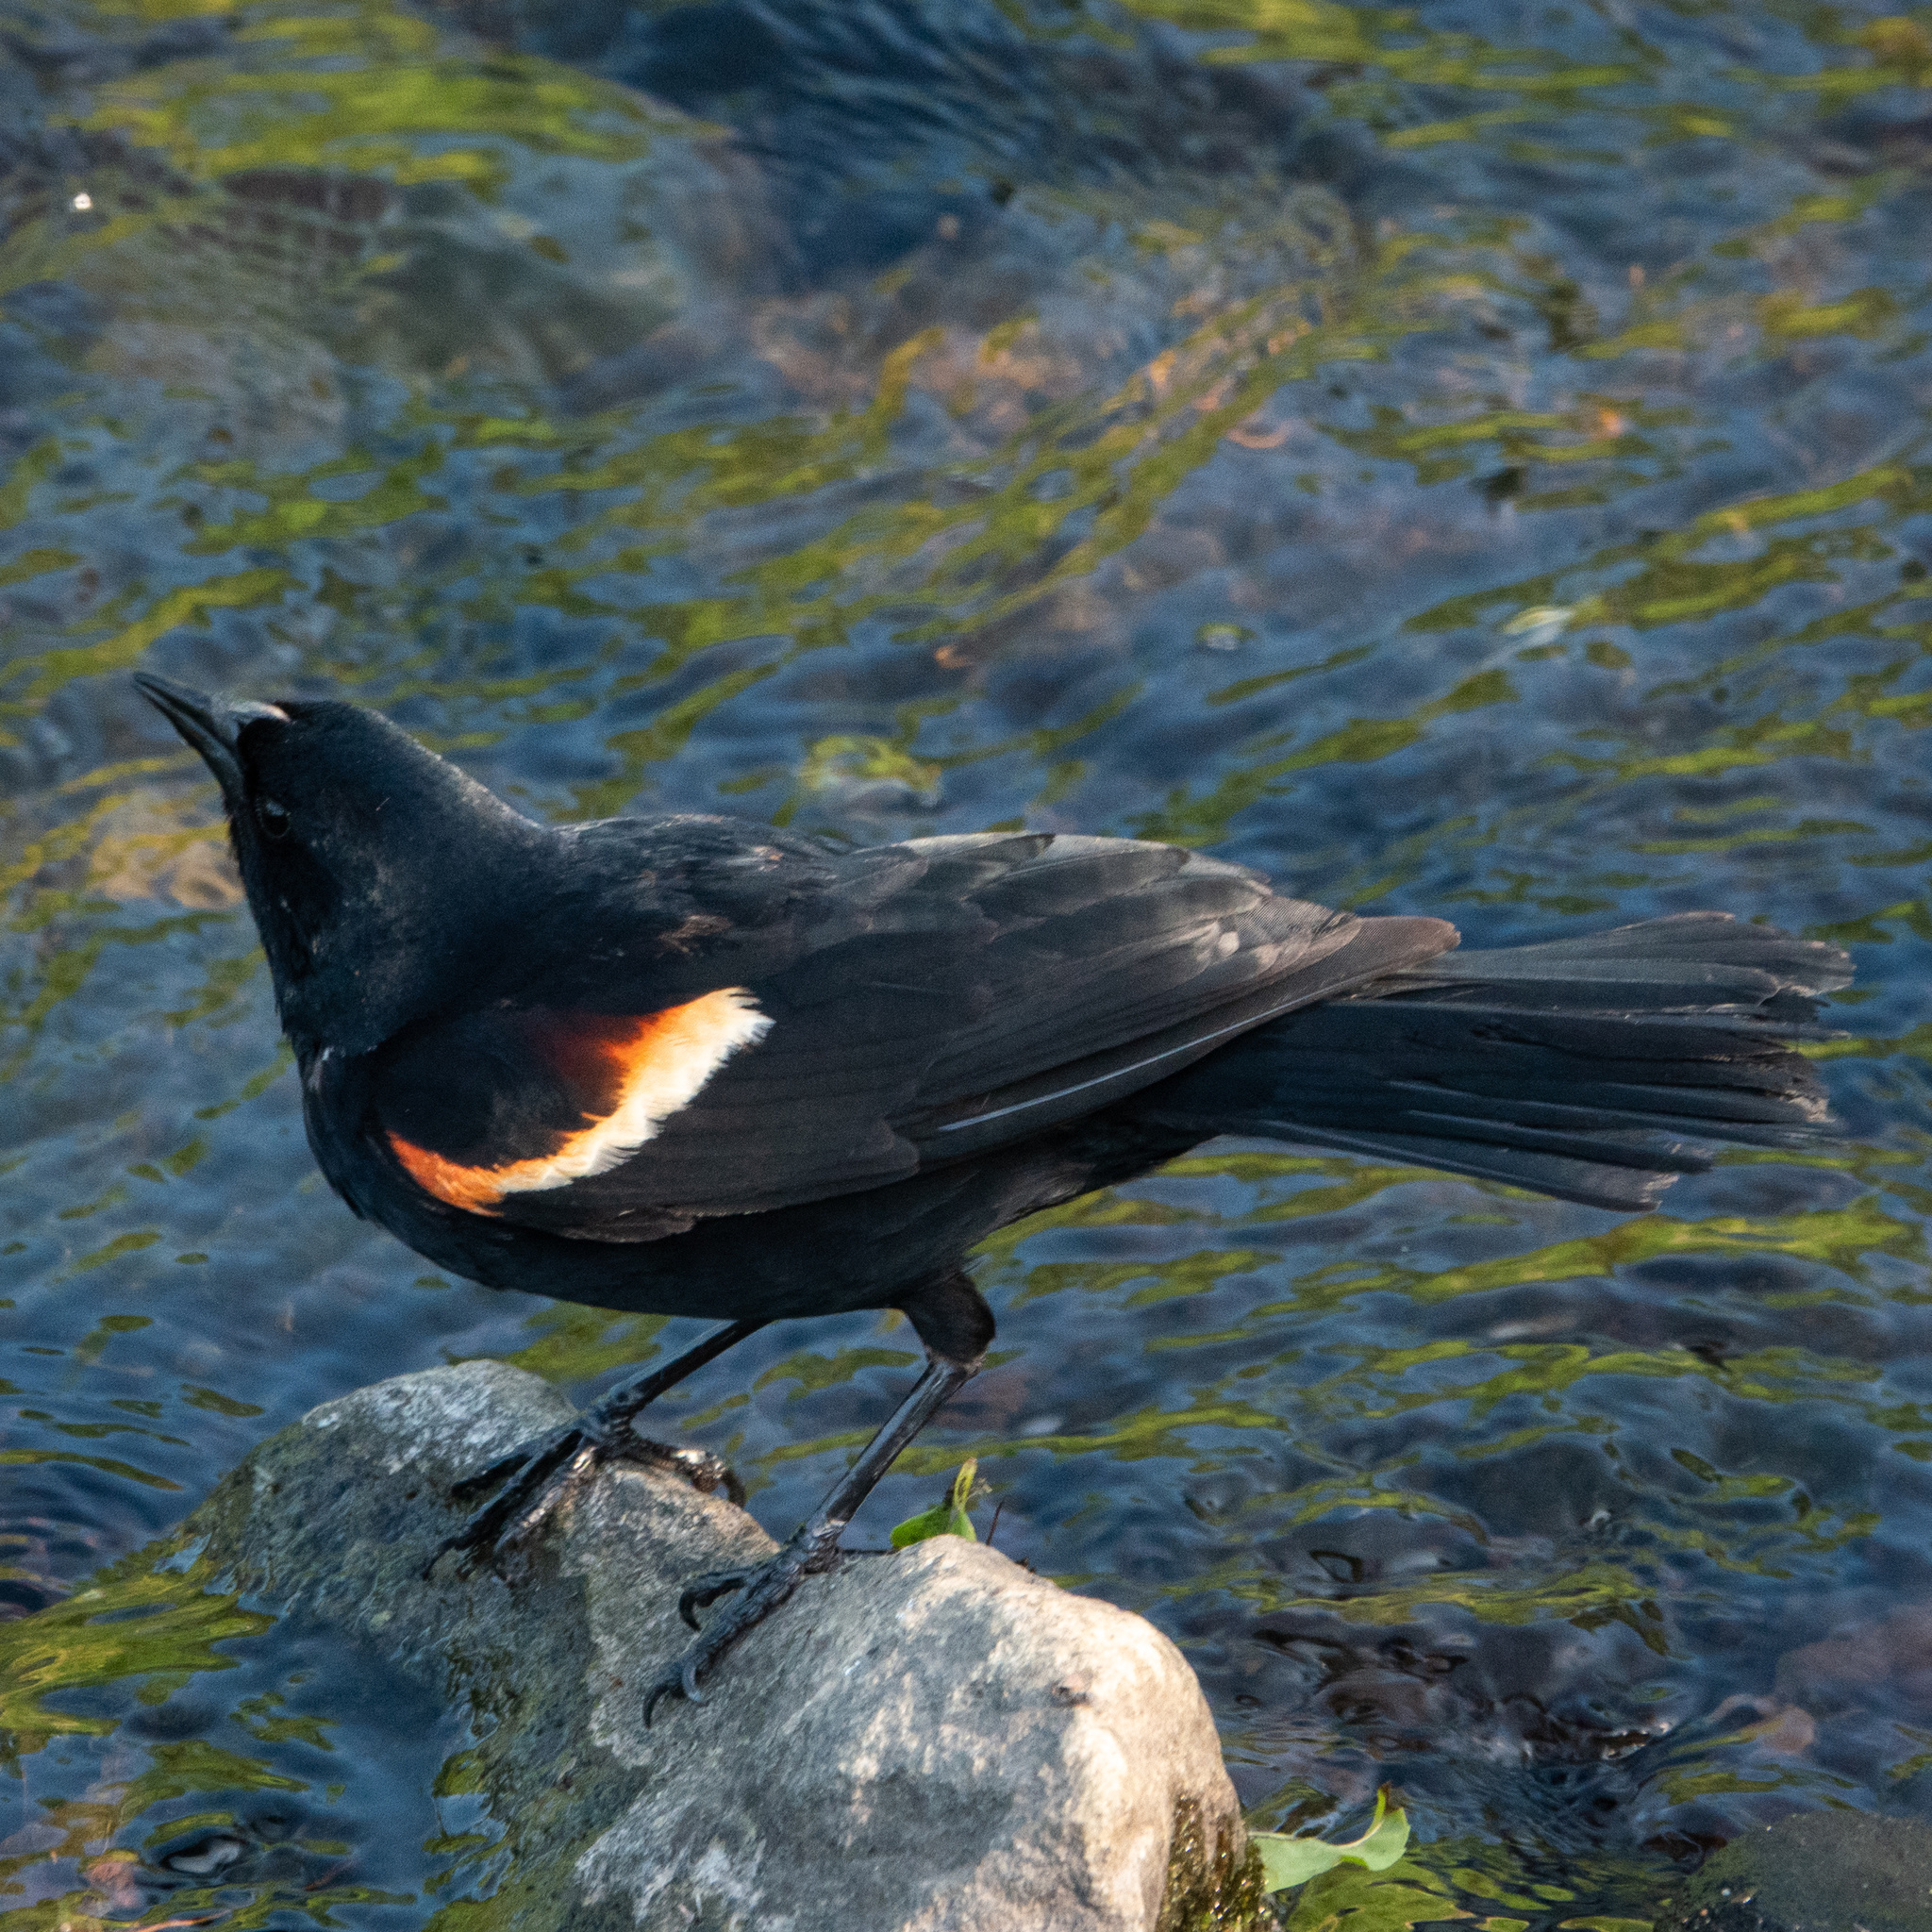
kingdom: Animalia
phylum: Chordata
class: Aves
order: Passeriformes
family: Icteridae
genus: Agelaius
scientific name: Agelaius phoeniceus
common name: Red-winged blackbird
